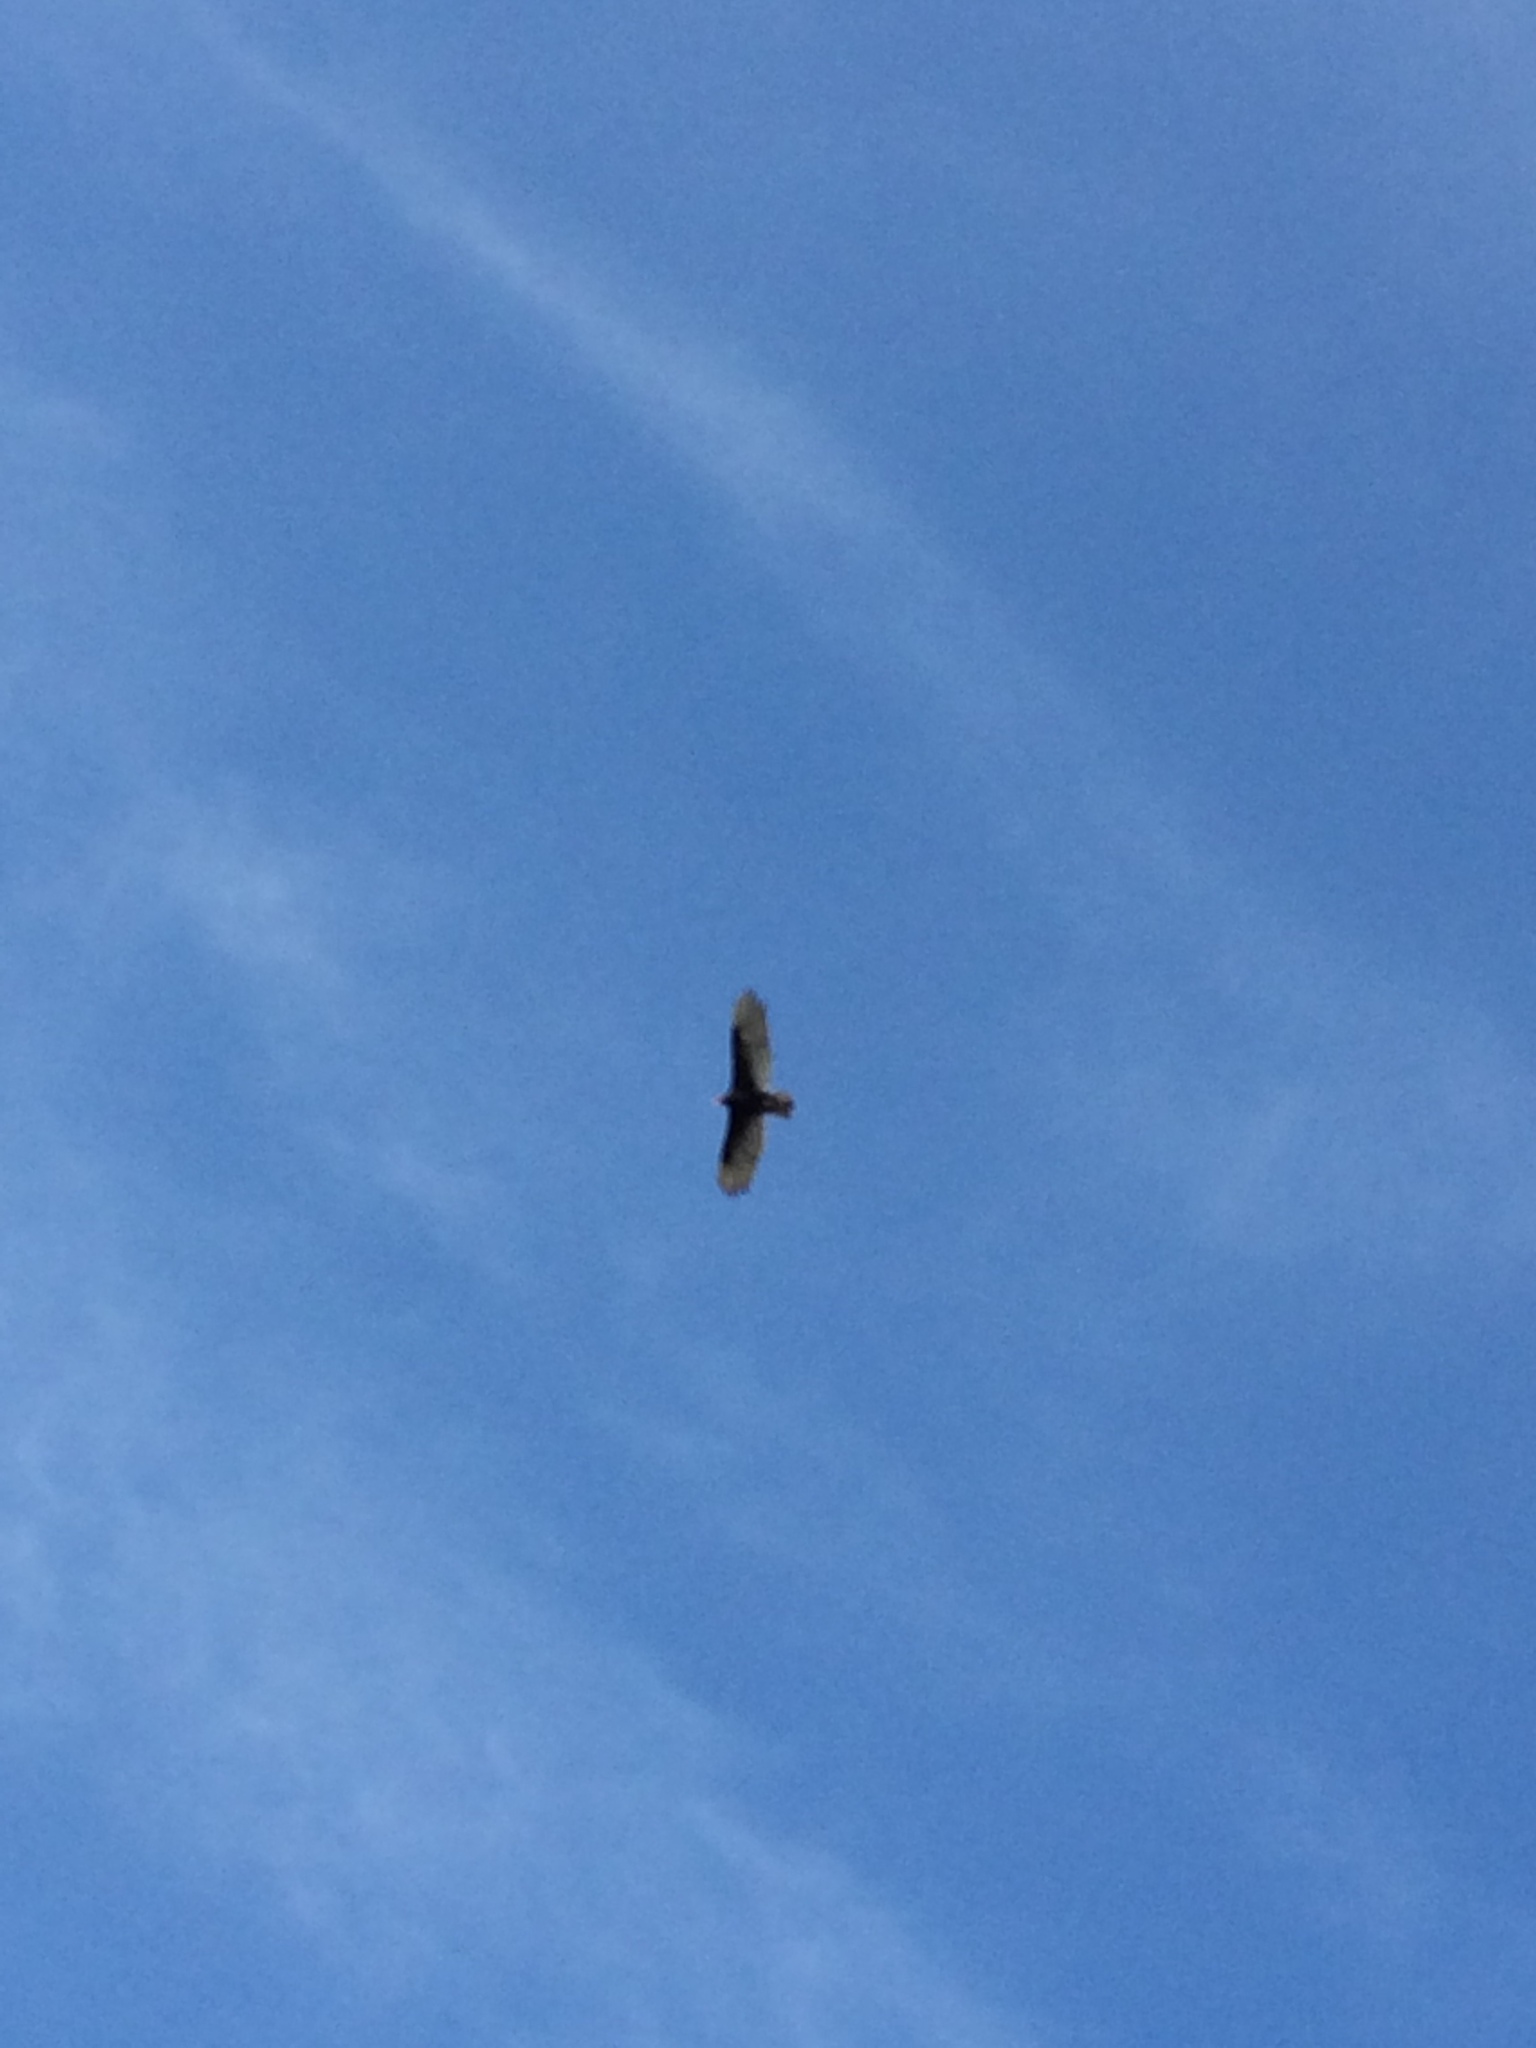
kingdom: Animalia
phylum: Chordata
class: Aves
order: Accipitriformes
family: Cathartidae
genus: Cathartes
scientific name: Cathartes aura
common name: Turkey vulture
